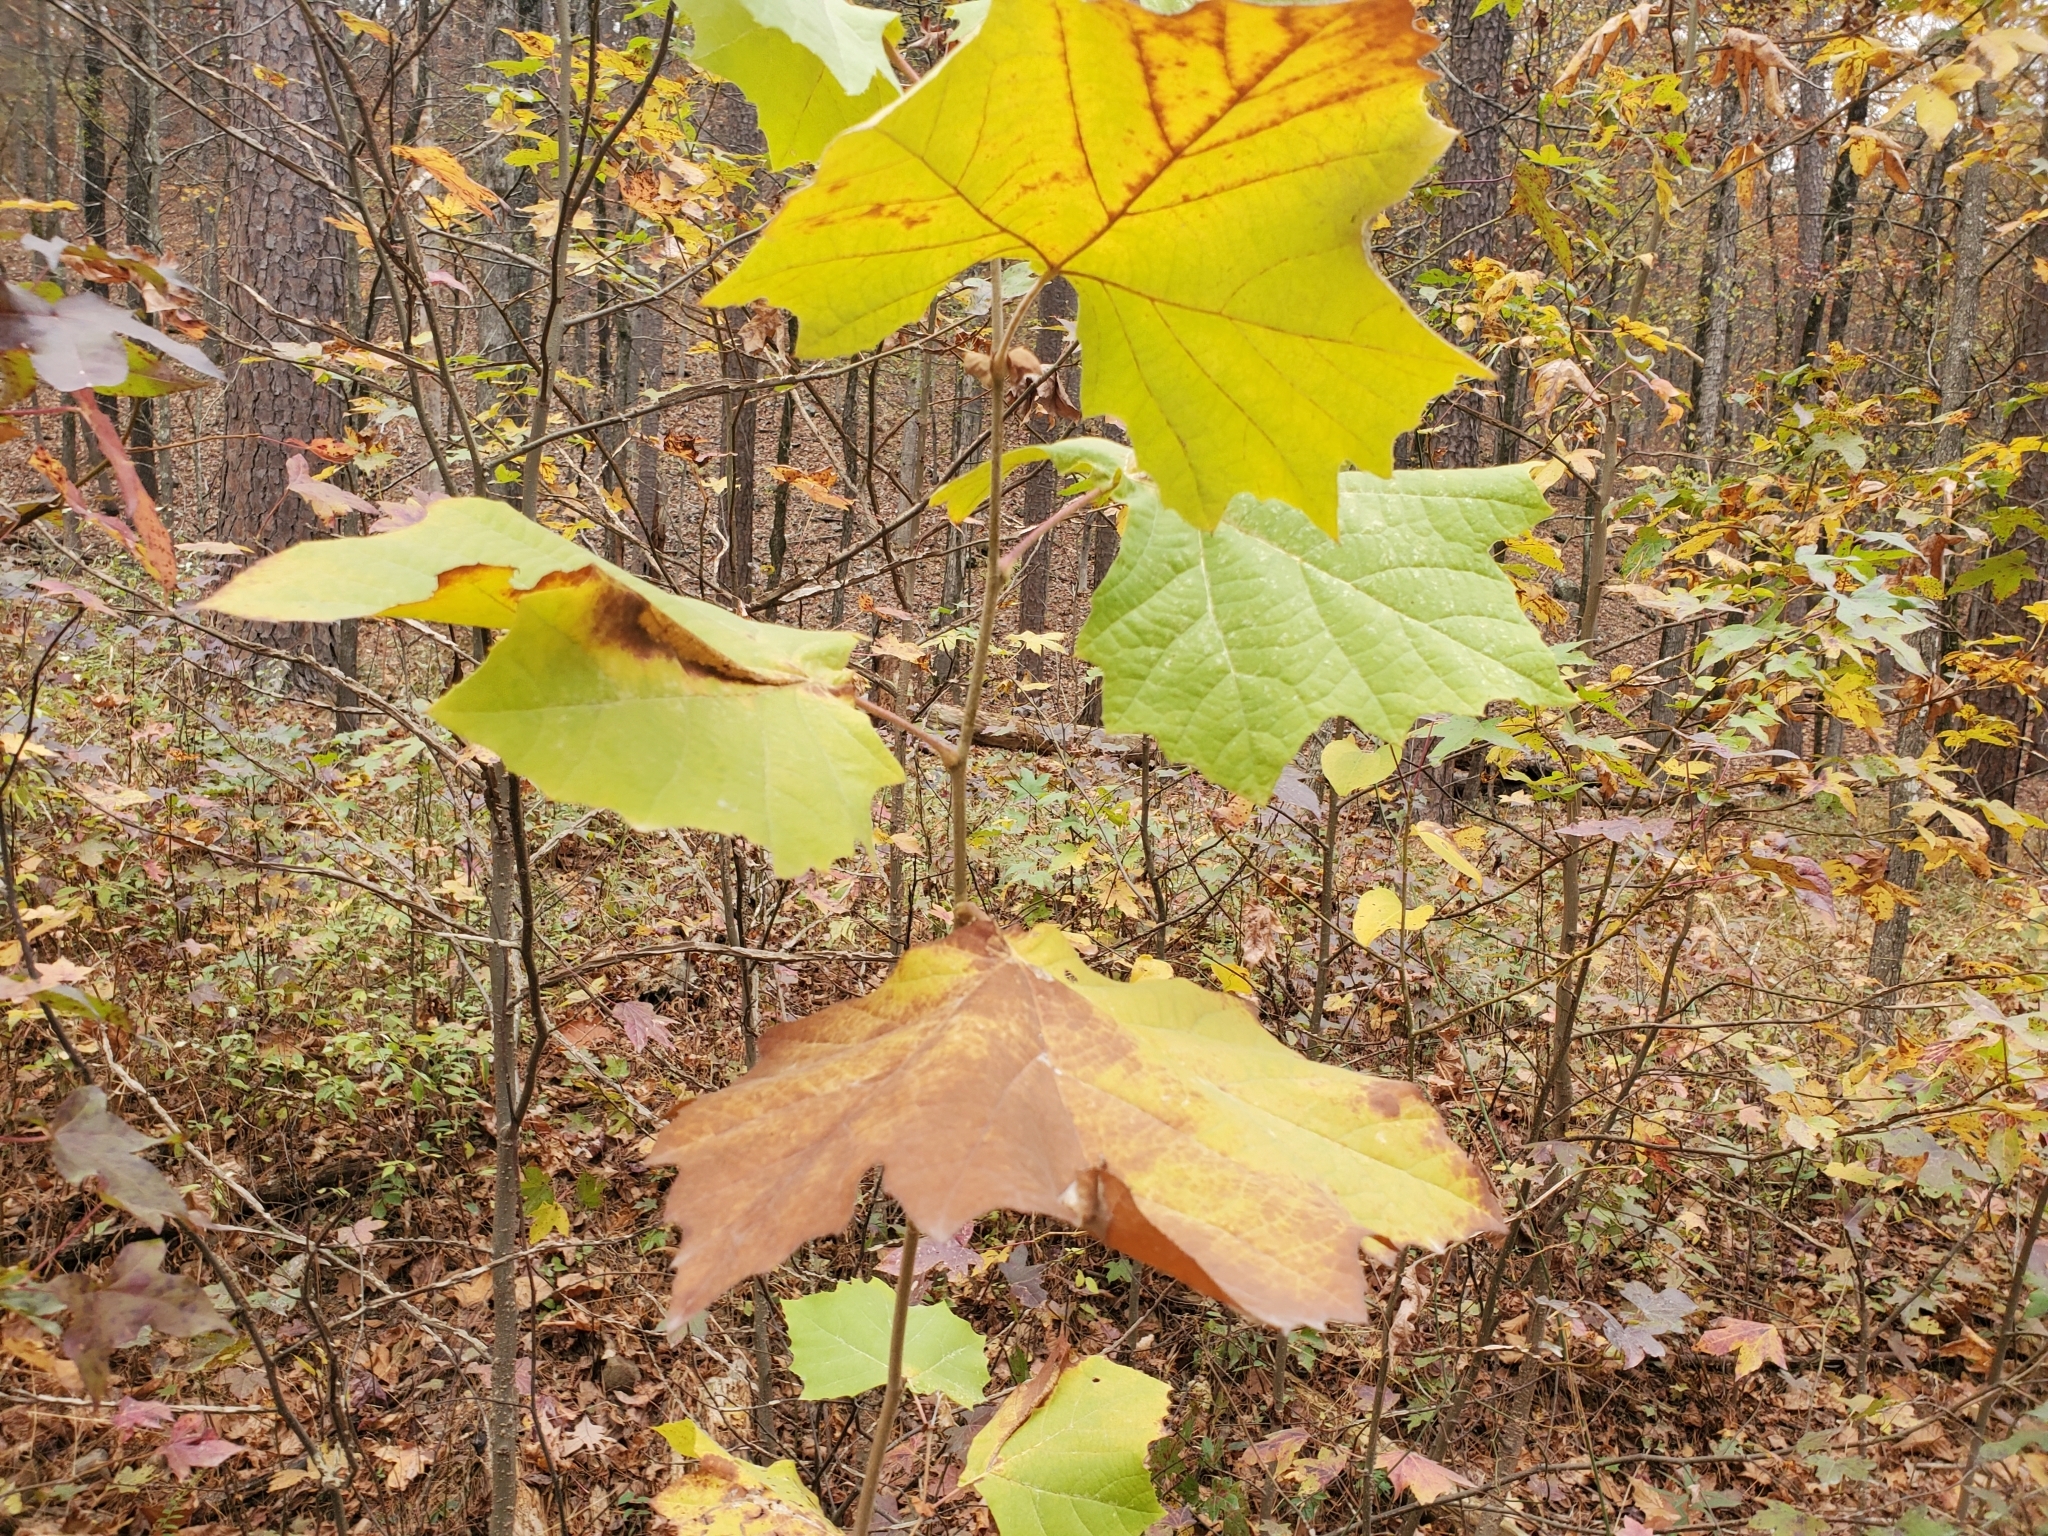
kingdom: Plantae
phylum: Tracheophyta
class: Magnoliopsida
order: Proteales
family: Platanaceae
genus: Platanus
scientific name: Platanus occidentalis
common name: American sycamore
